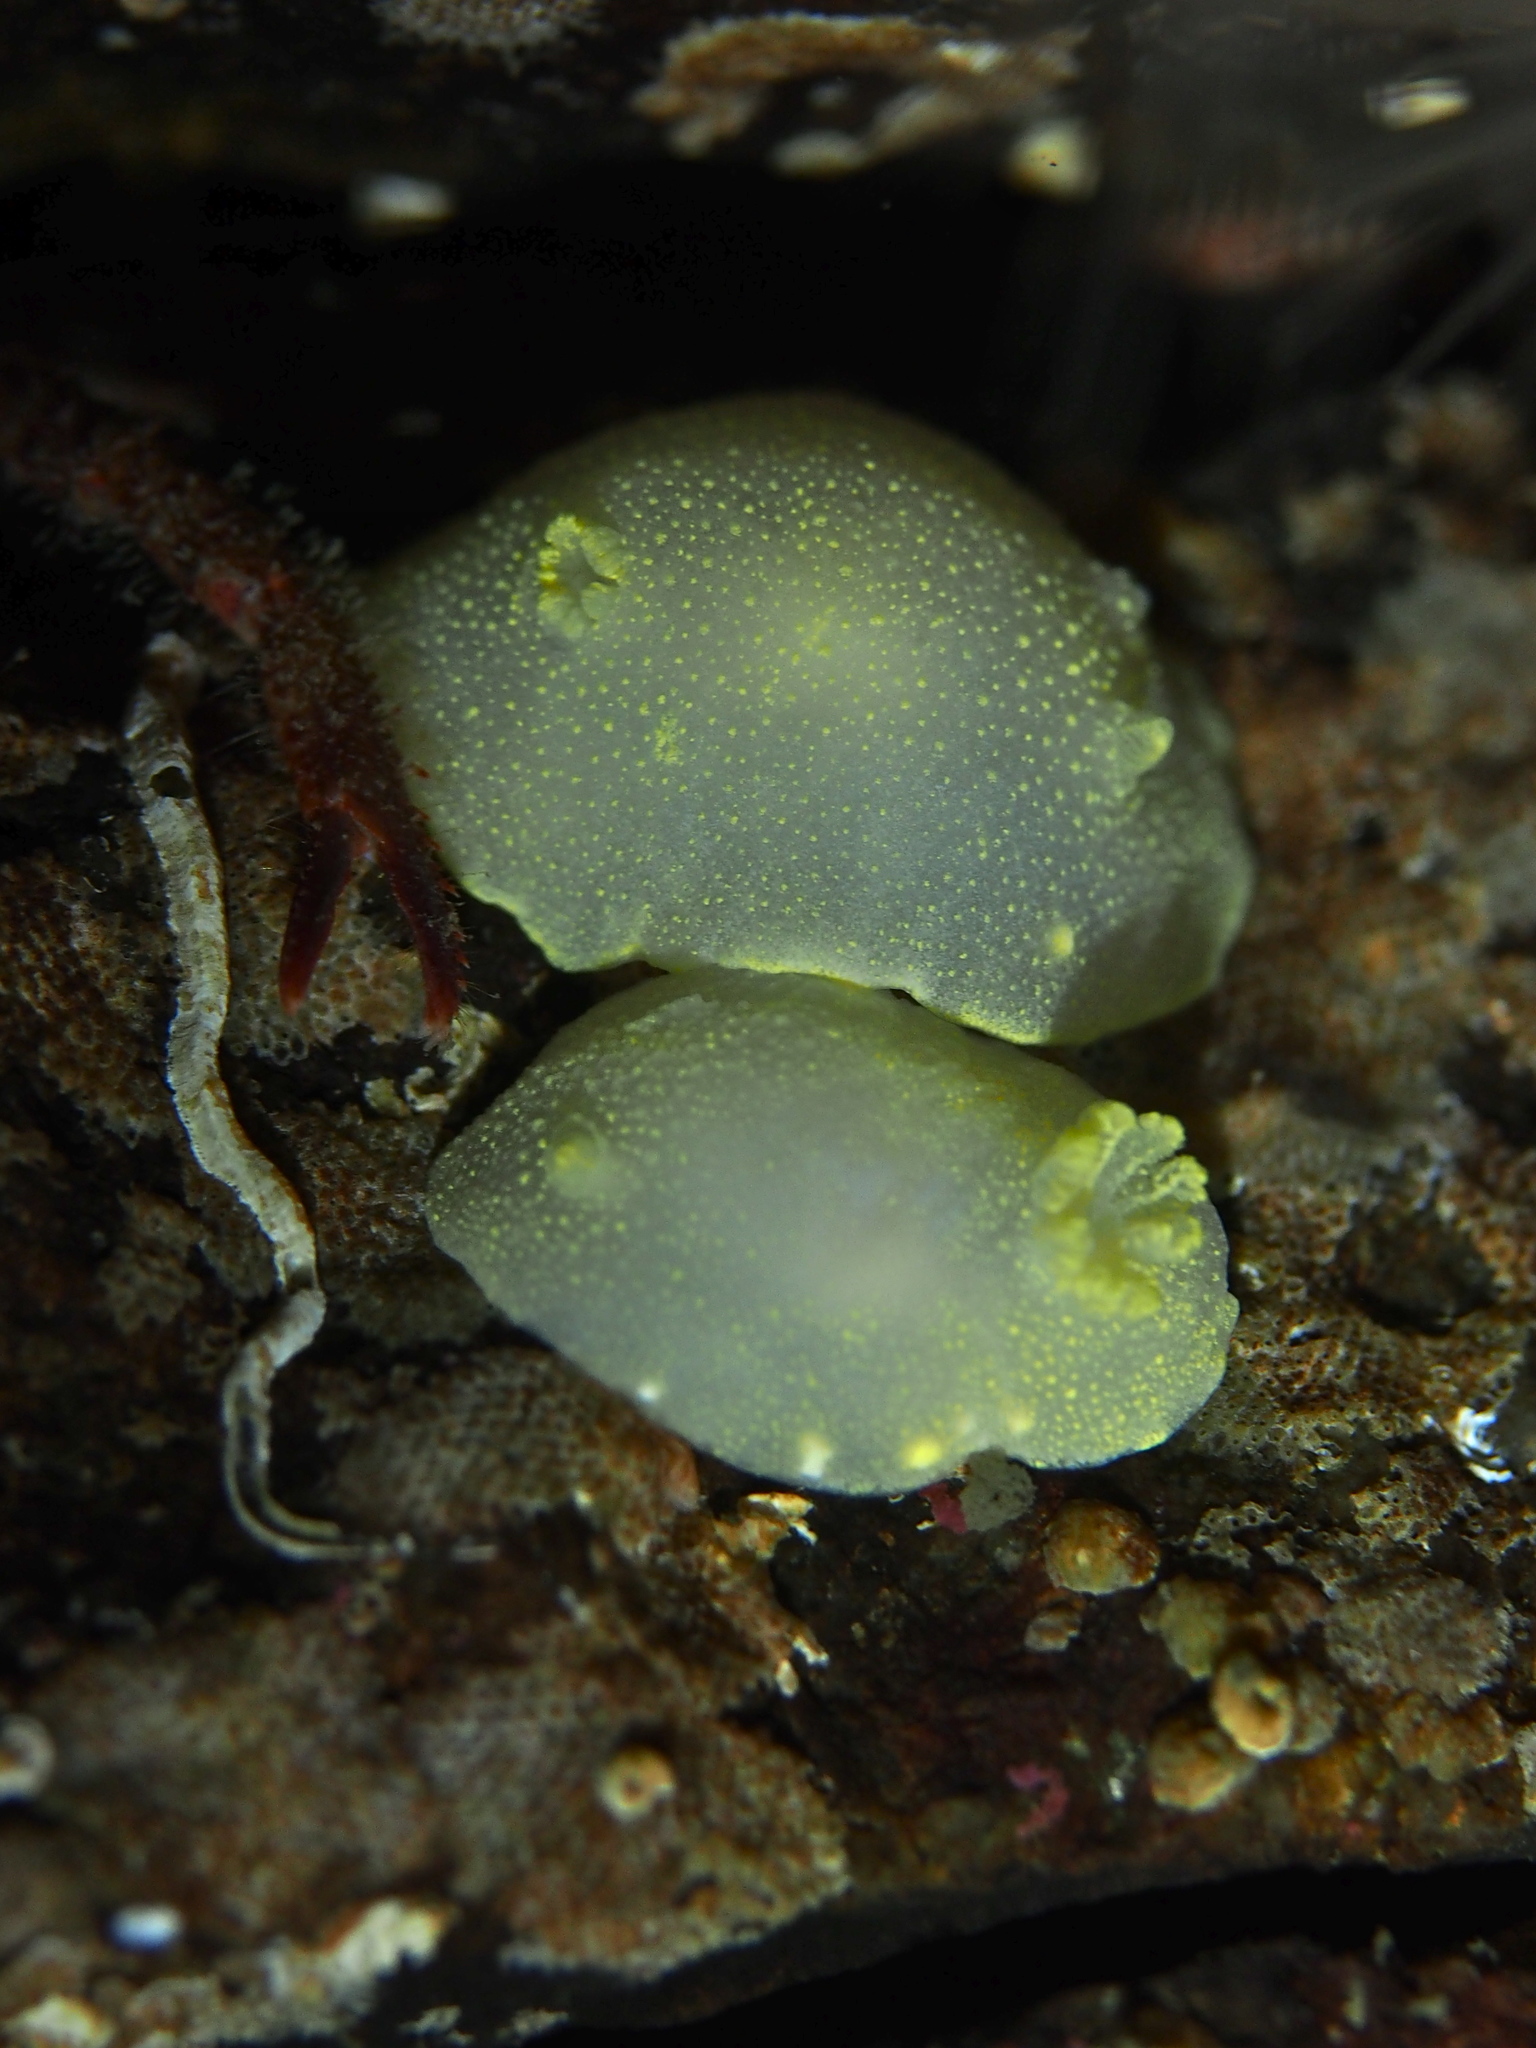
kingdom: Animalia
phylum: Mollusca
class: Gastropoda
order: Nudibranchia
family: Cadlinidae
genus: Cadlina
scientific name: Cadlina laevis
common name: White atlantic cadlina
